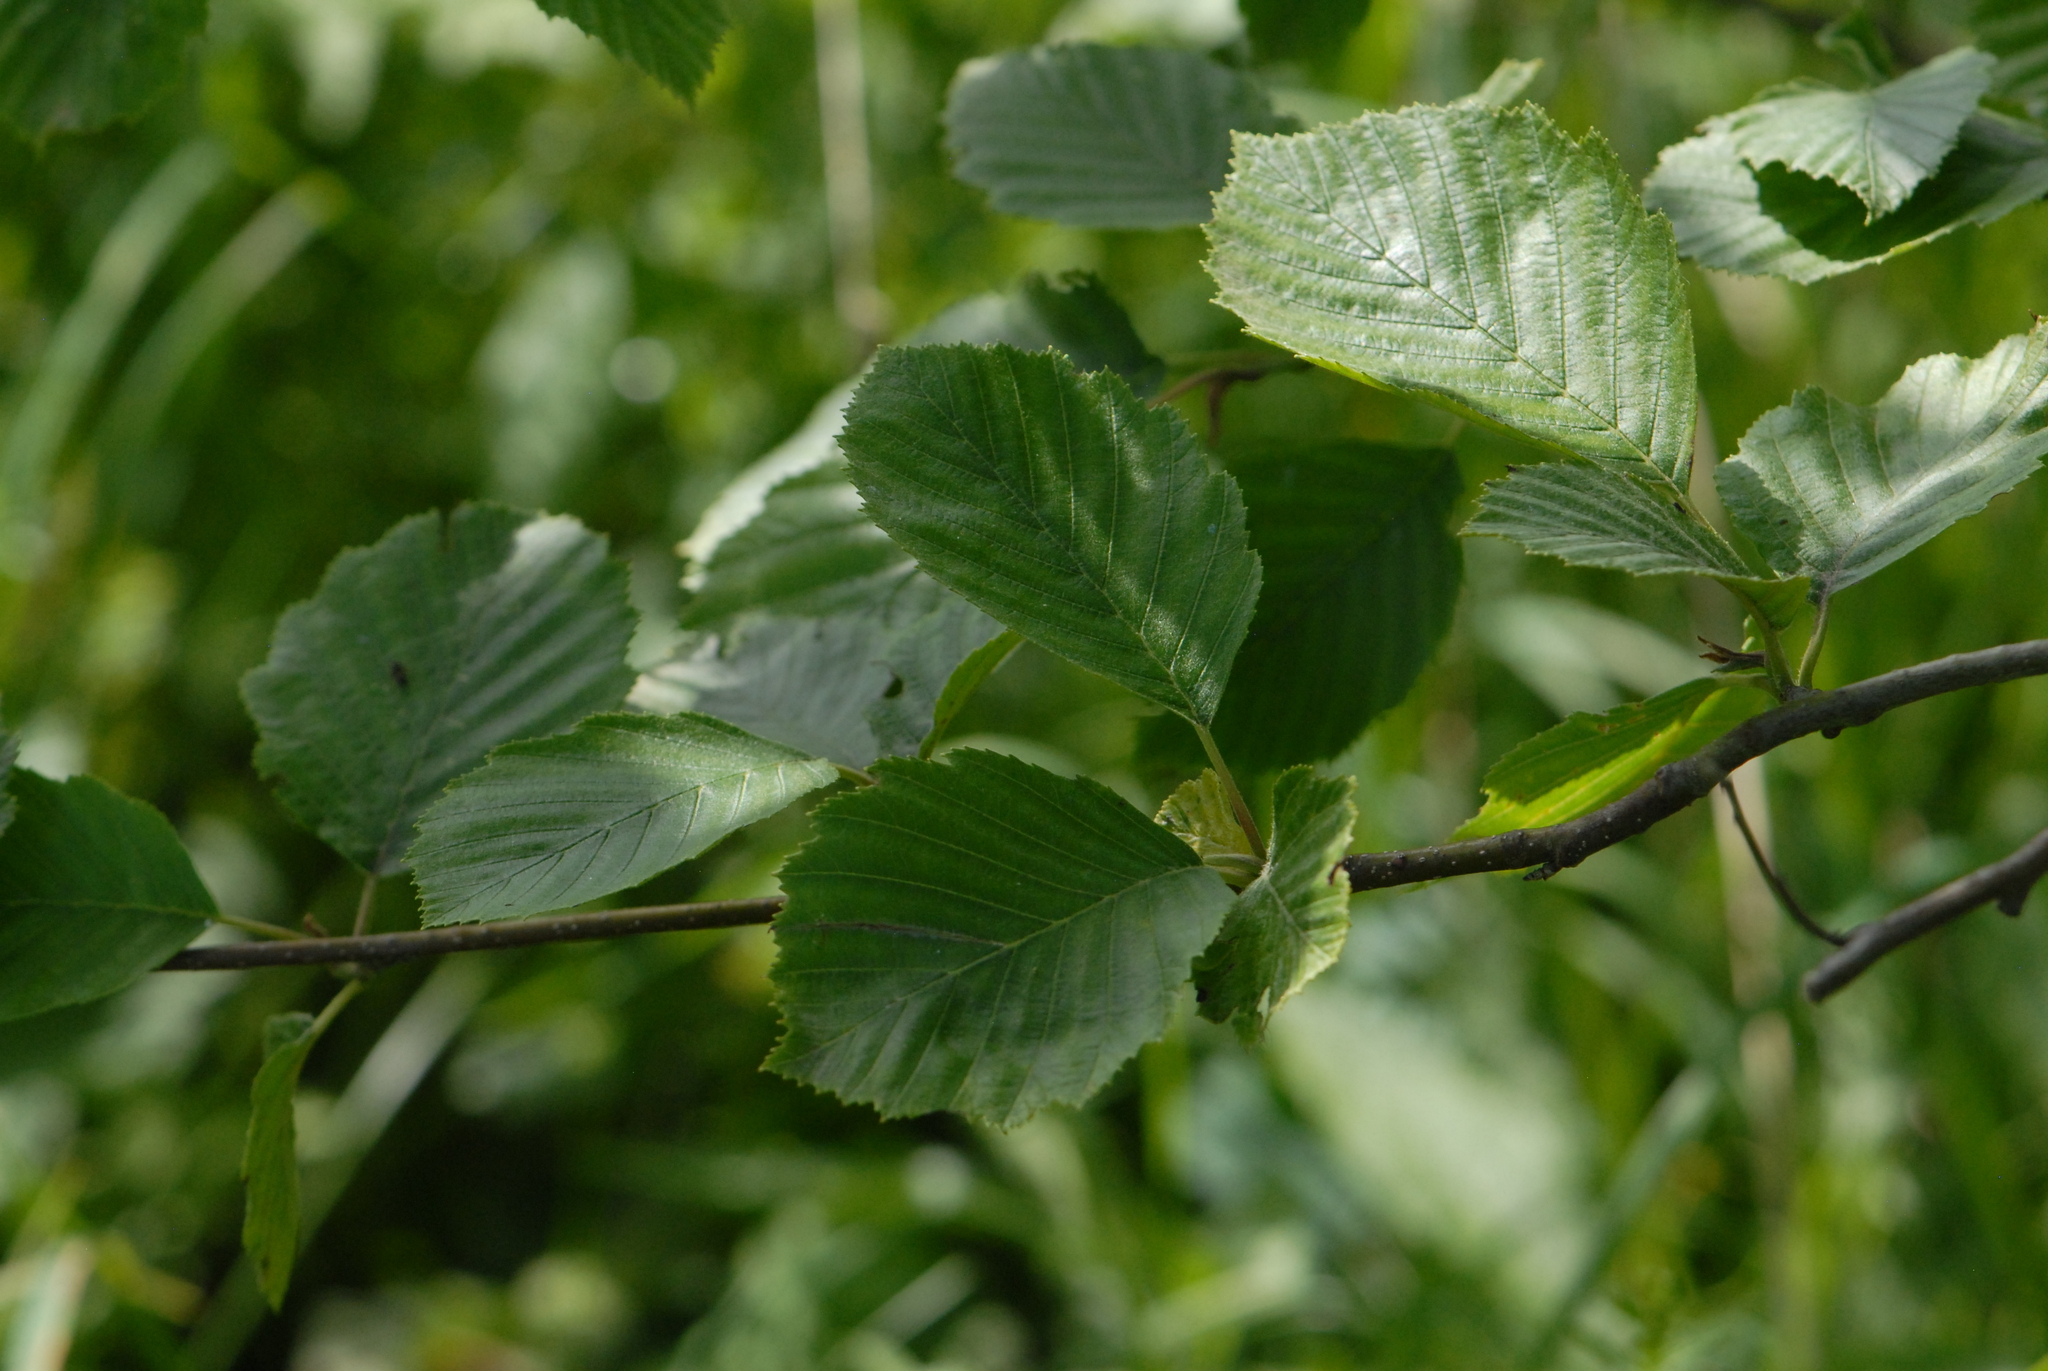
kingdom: Plantae
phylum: Tracheophyta
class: Magnoliopsida
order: Fagales
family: Betulaceae
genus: Alnus
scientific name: Alnus incana
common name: Grey alder
